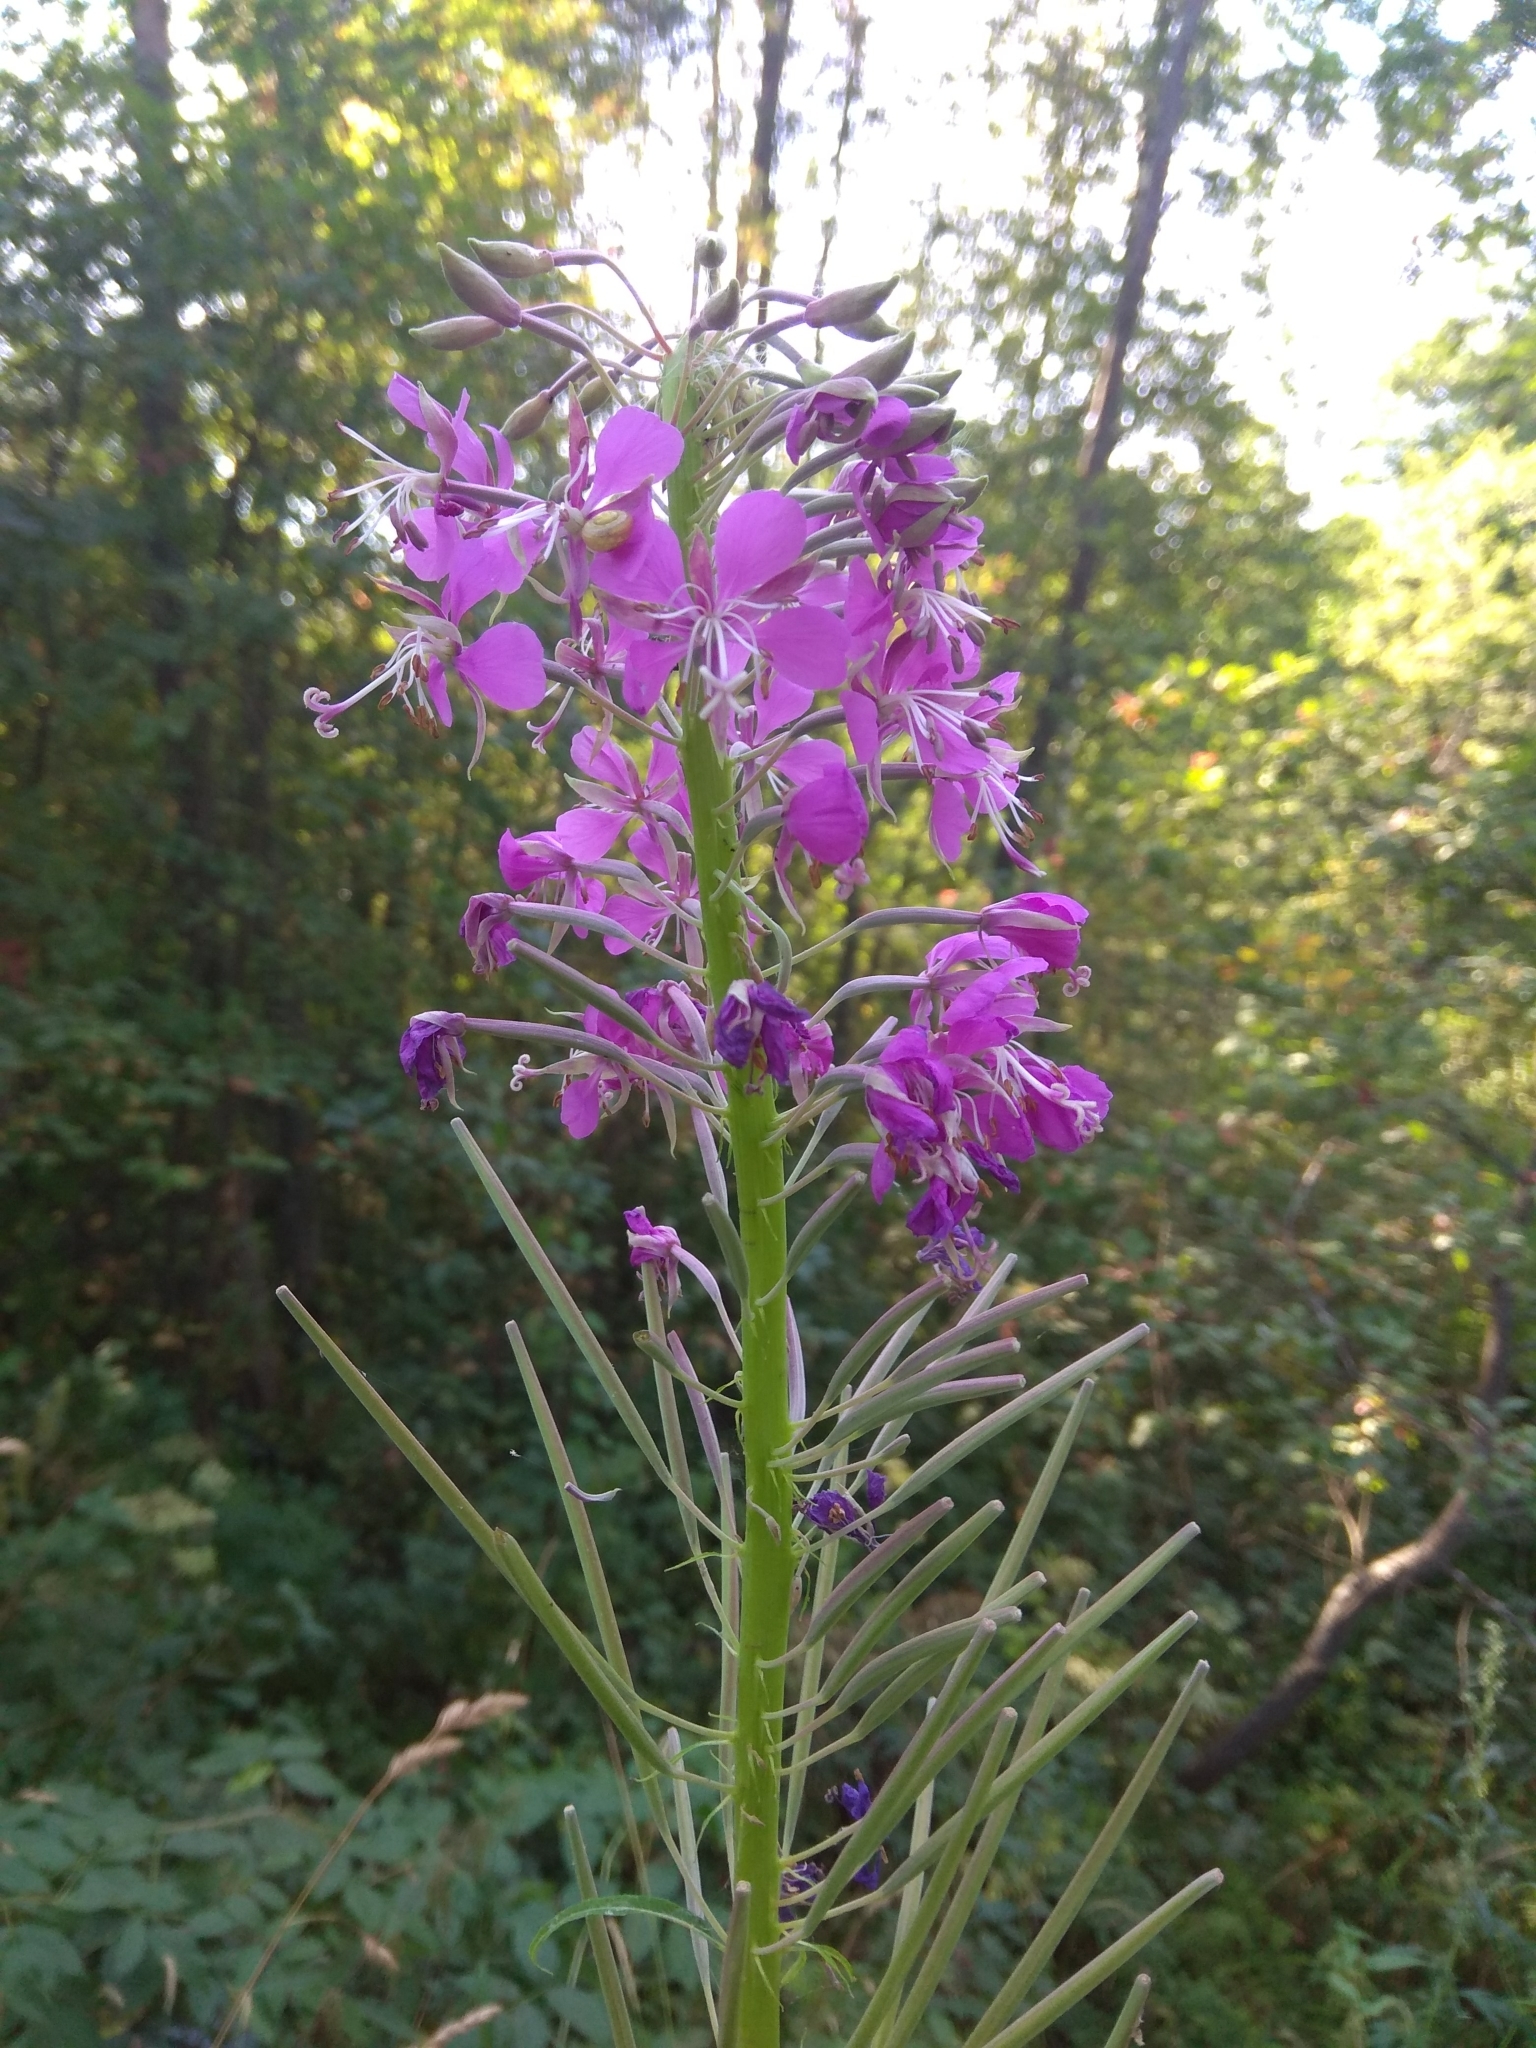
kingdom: Plantae
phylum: Tracheophyta
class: Magnoliopsida
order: Myrtales
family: Onagraceae
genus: Chamaenerion
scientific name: Chamaenerion angustifolium
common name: Fireweed
